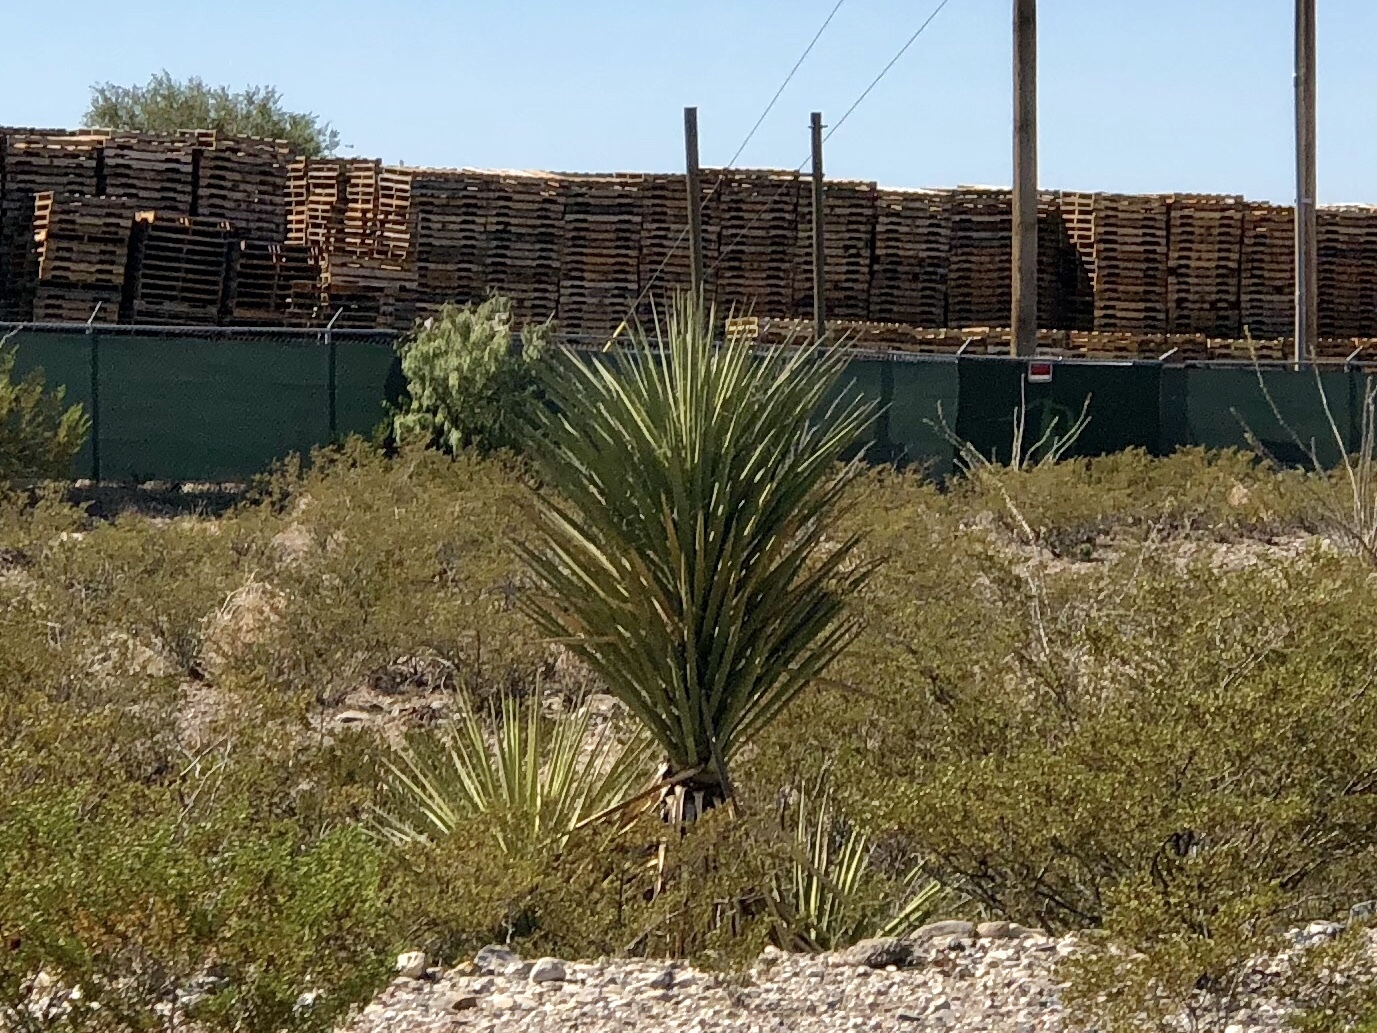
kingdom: Plantae
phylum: Tracheophyta
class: Liliopsida
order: Asparagales
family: Asparagaceae
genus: Yucca
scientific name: Yucca treculiana
